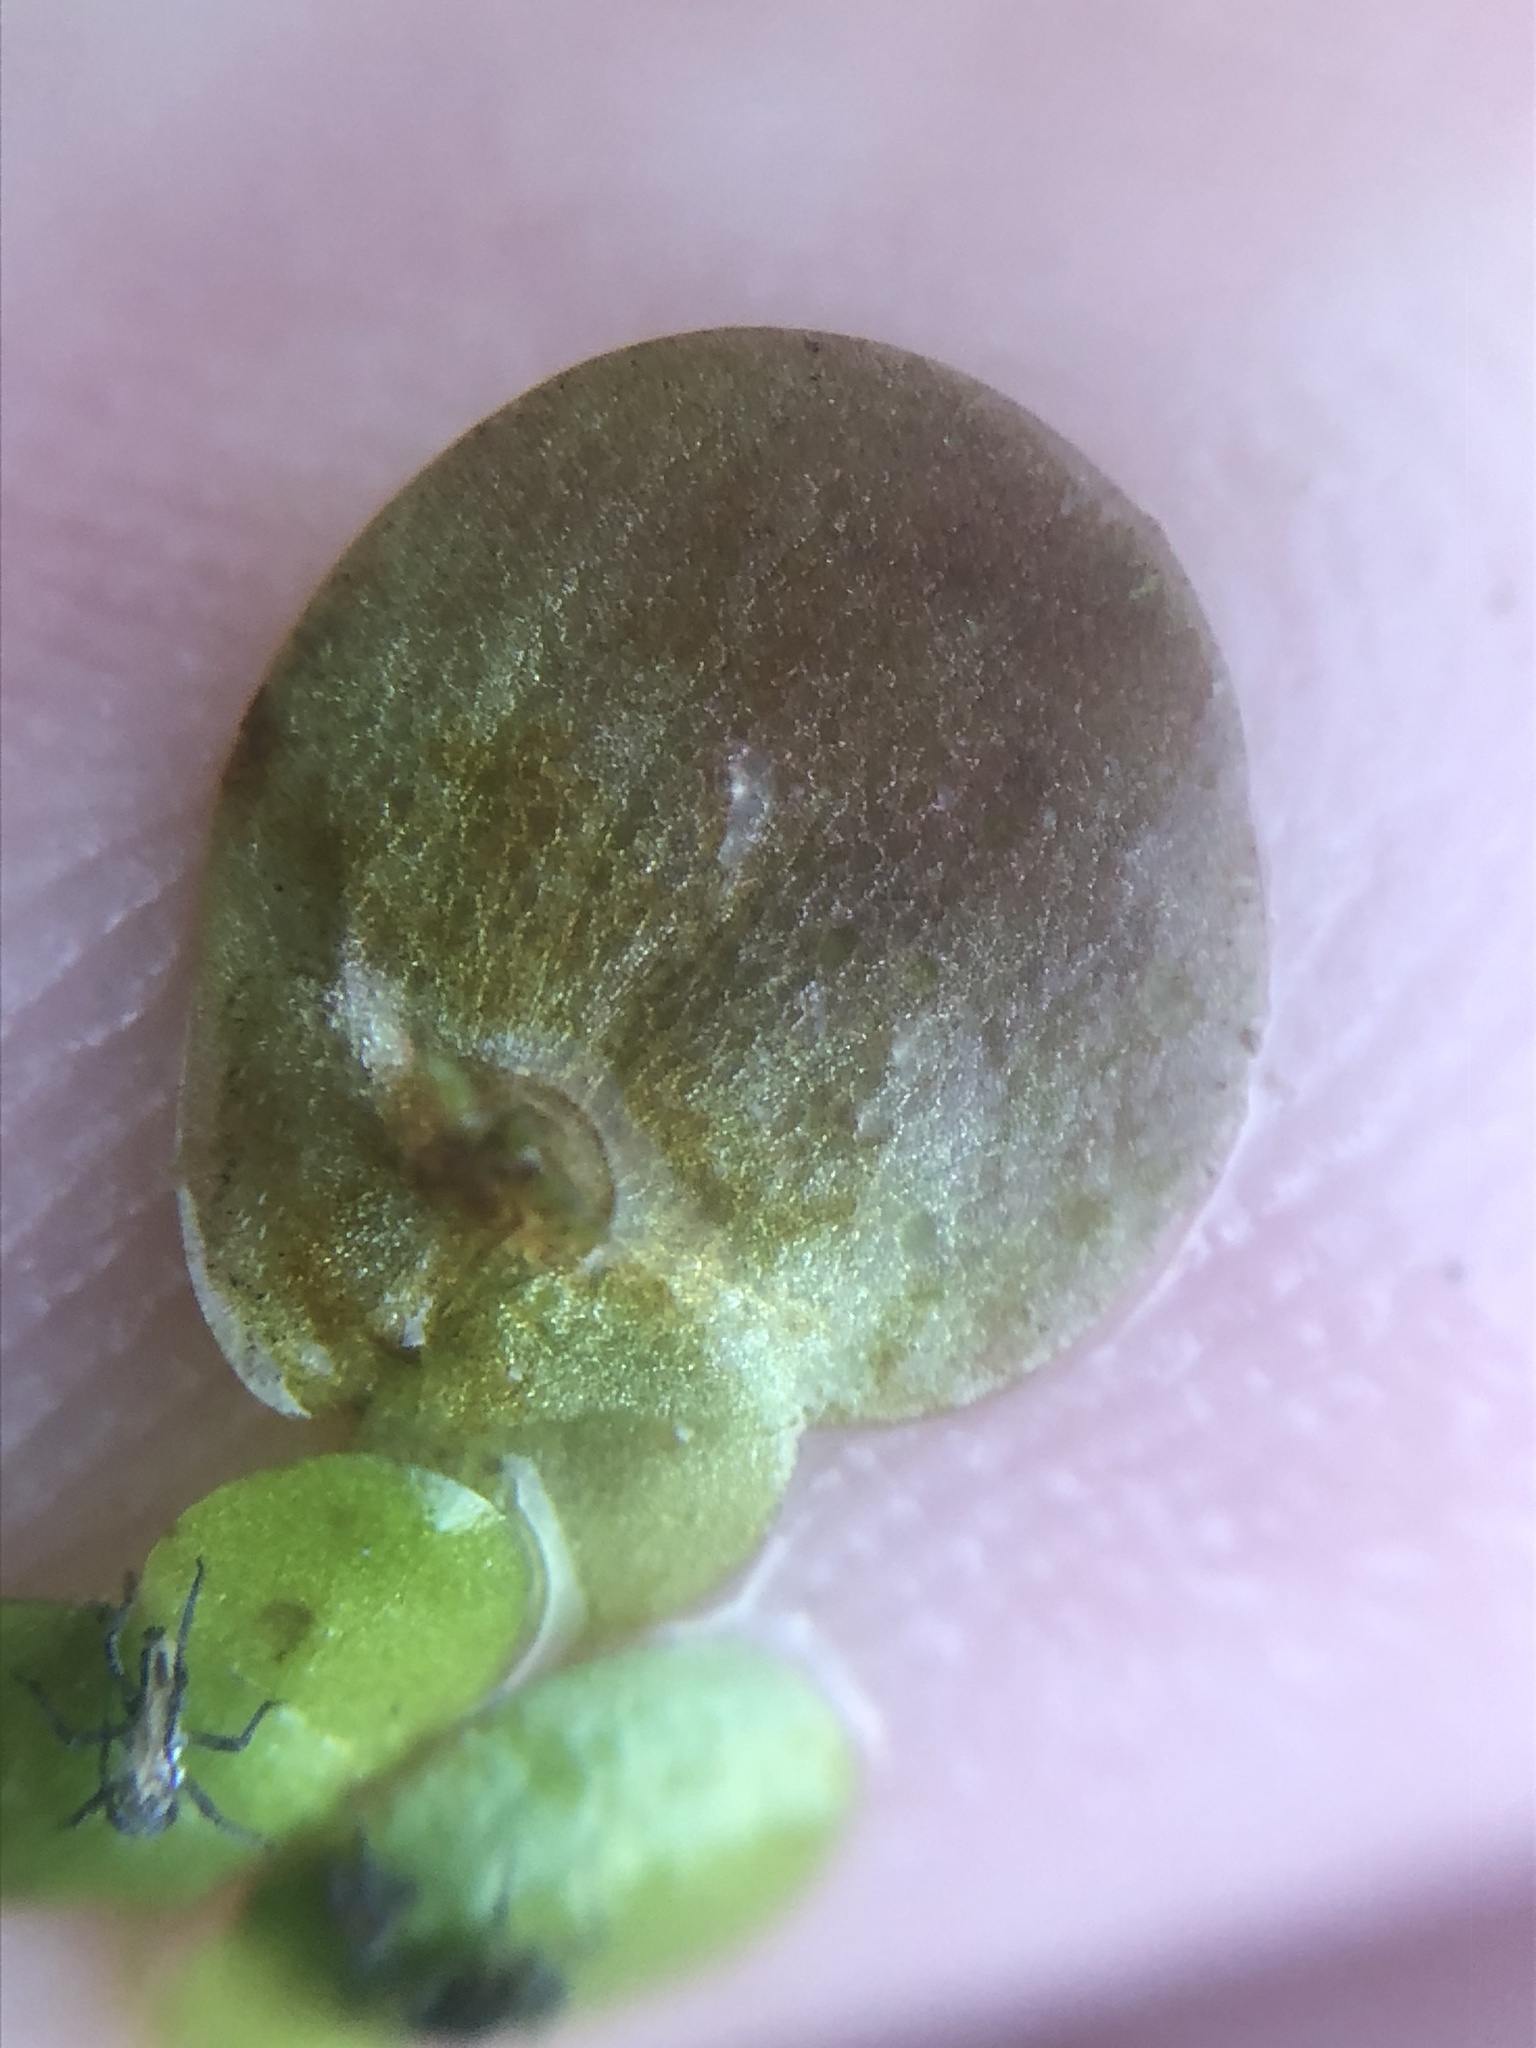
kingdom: Plantae
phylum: Tracheophyta
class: Liliopsida
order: Alismatales
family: Araceae
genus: Spirodela
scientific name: Spirodela polyrhiza
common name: Great duckweed
